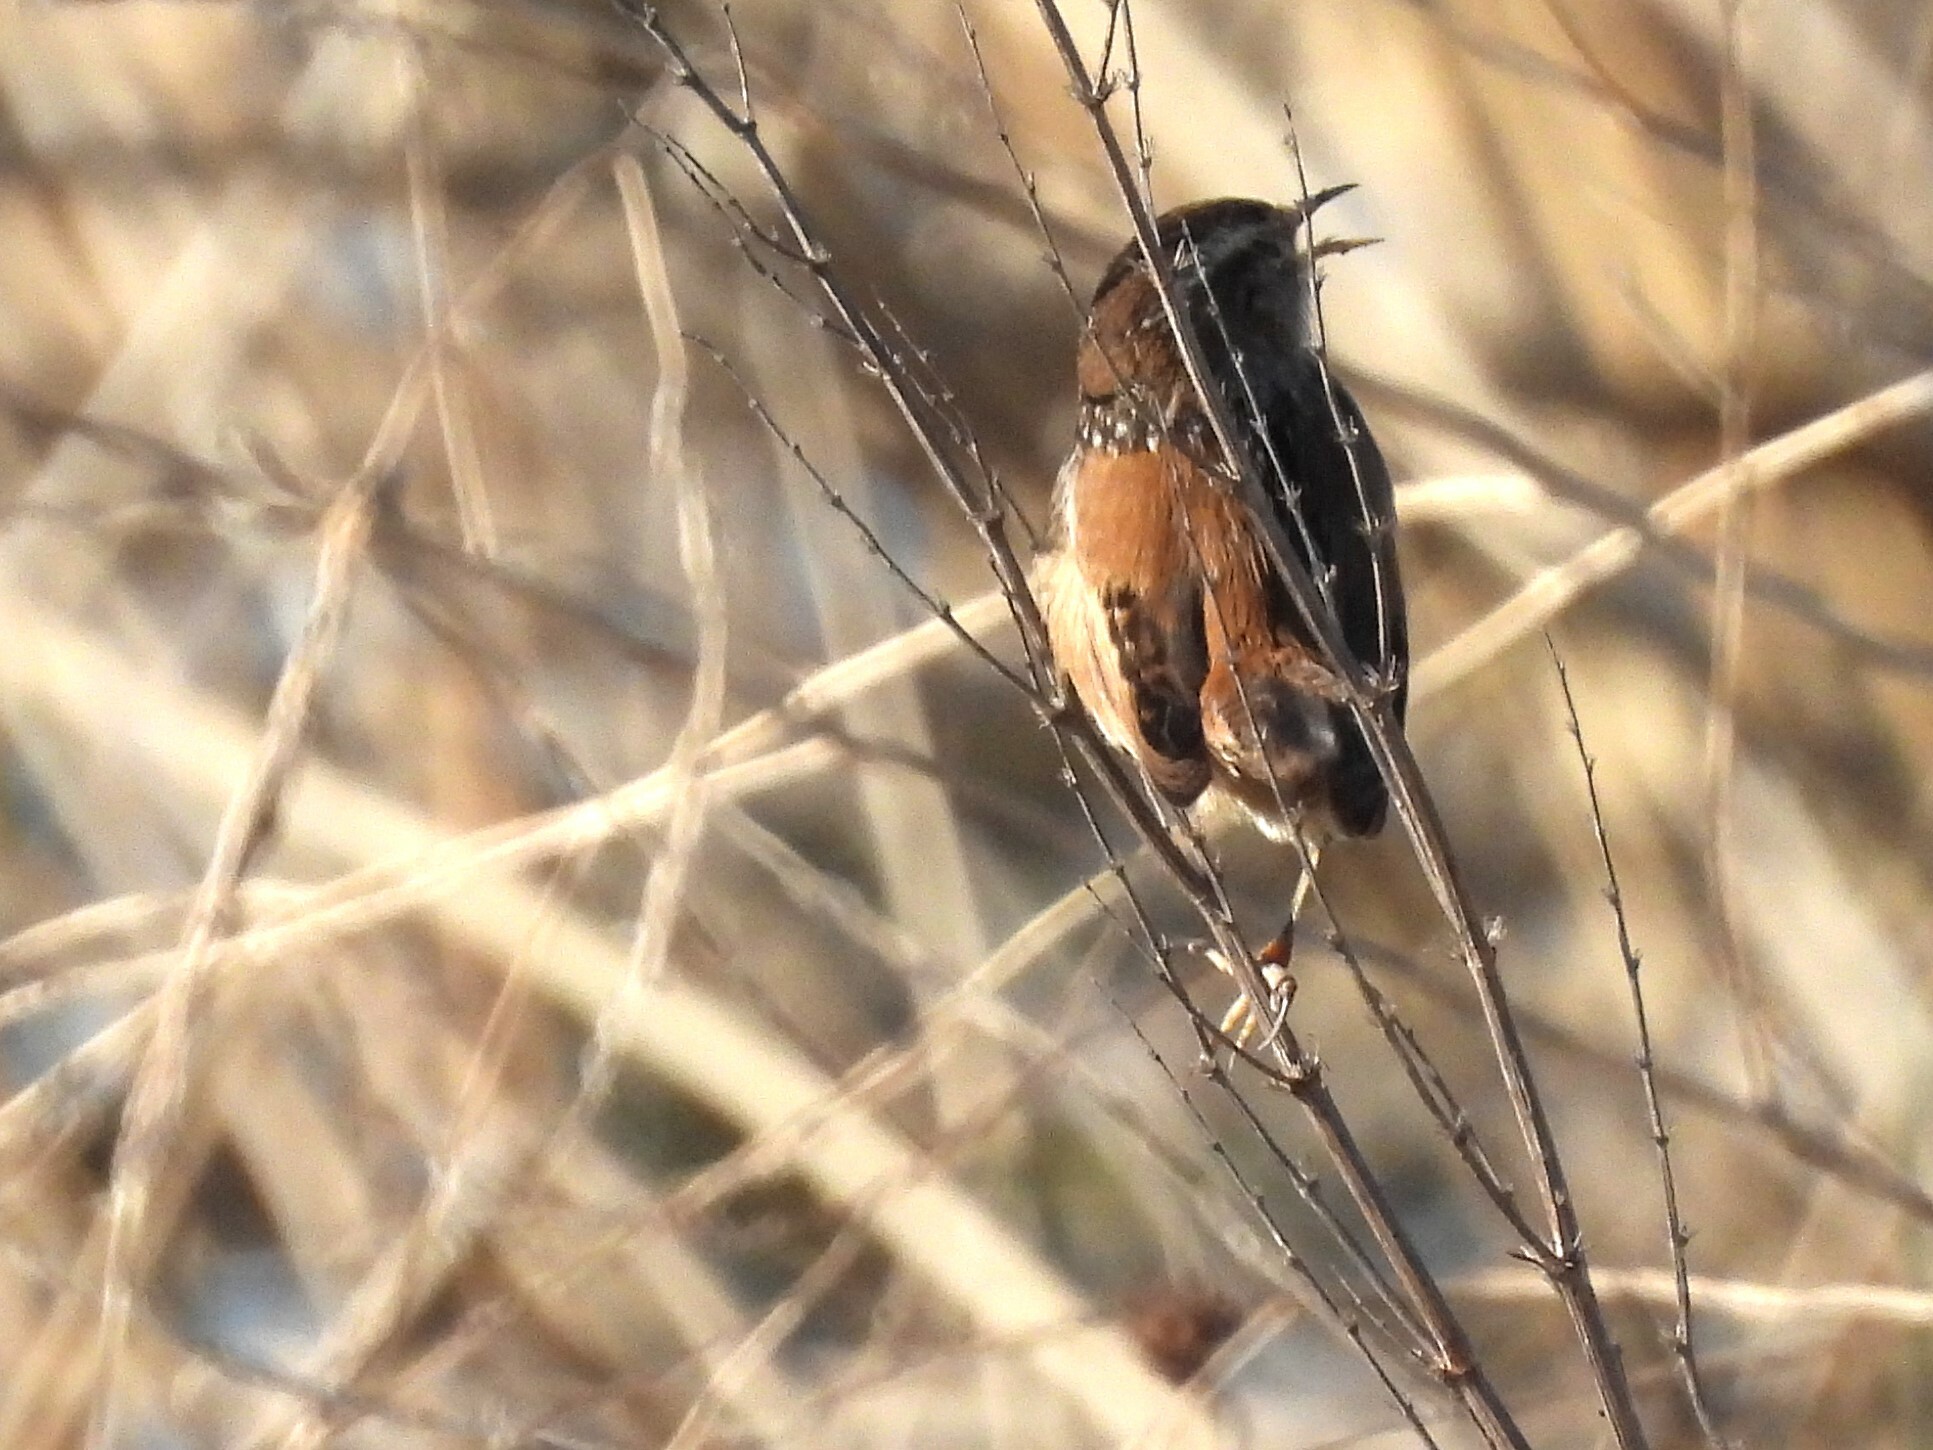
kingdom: Animalia
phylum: Chordata
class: Aves
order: Passeriformes
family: Troglodytidae
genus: Cistothorus
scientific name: Cistothorus palustris
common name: Marsh wren
